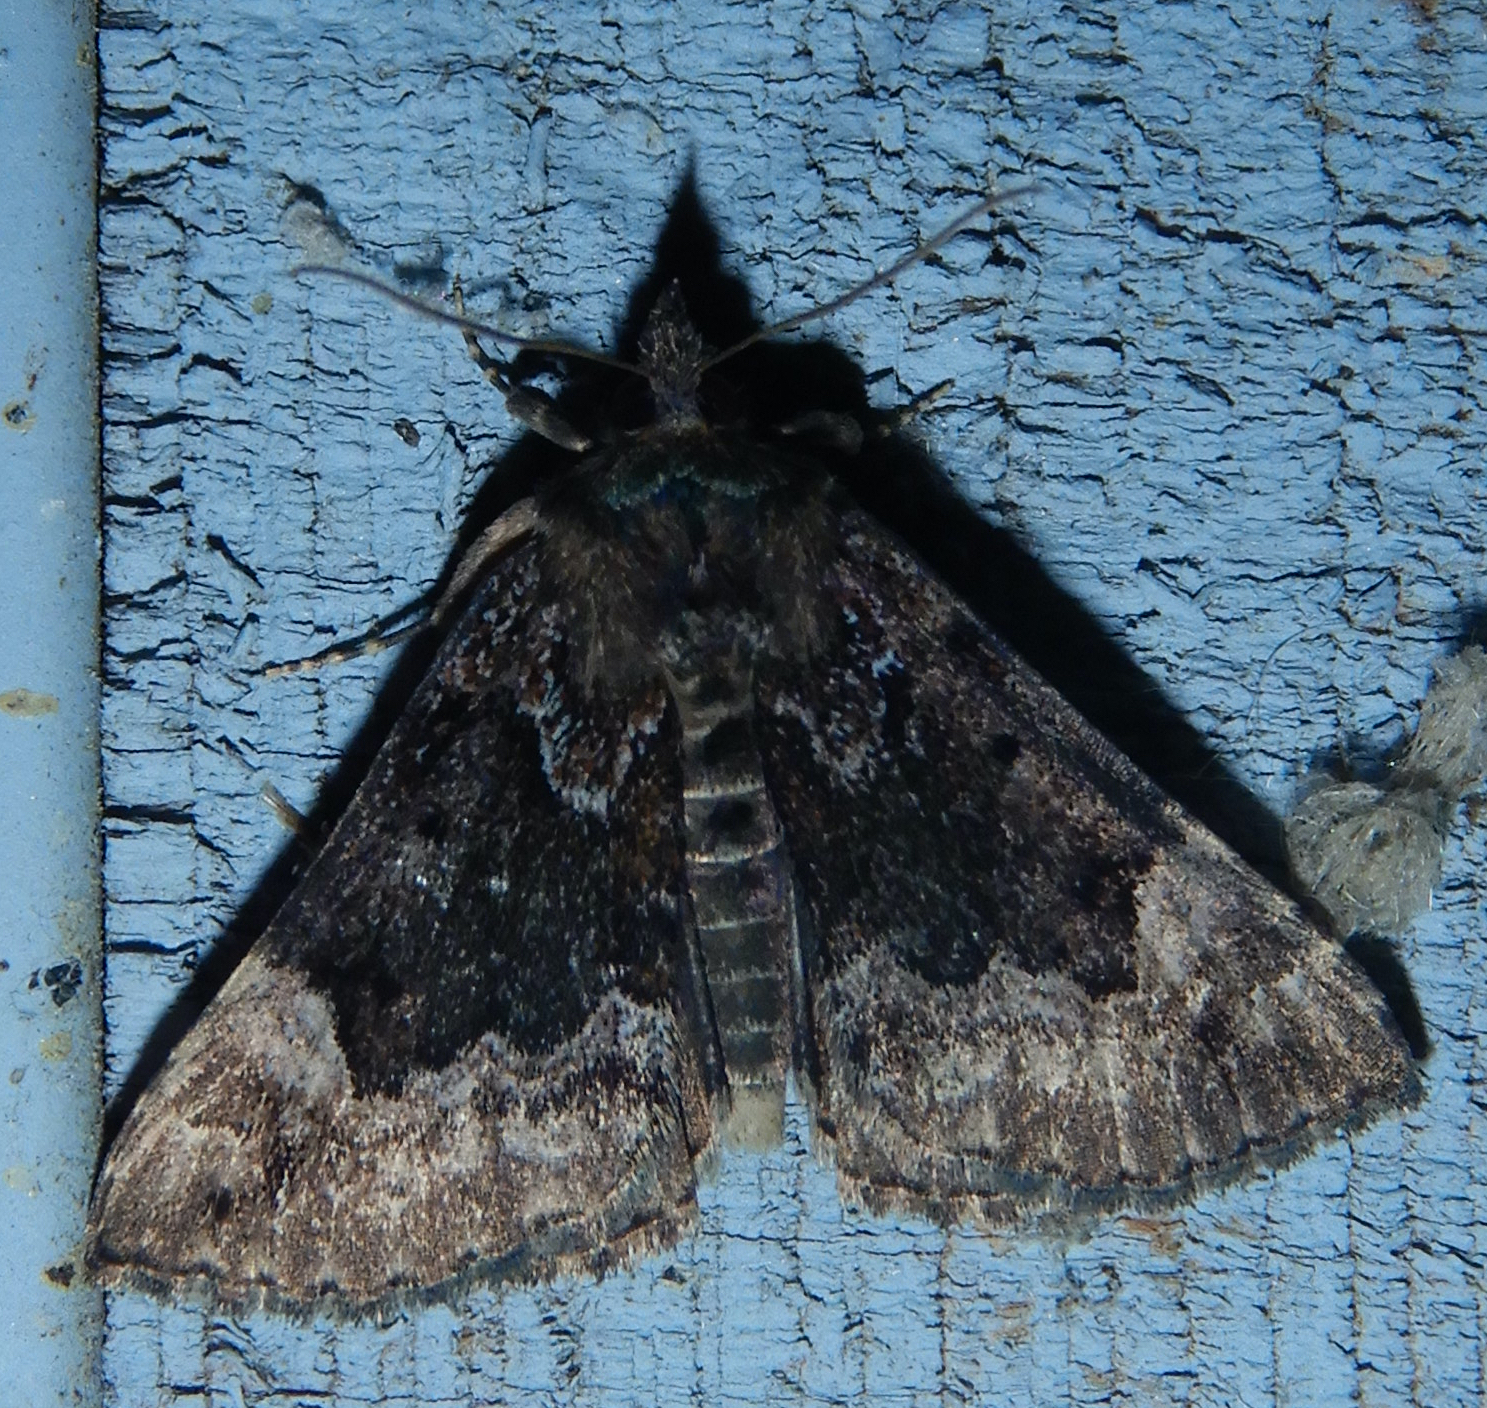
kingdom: Animalia
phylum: Arthropoda
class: Insecta
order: Lepidoptera
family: Erebidae
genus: Hypena
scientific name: Hypena palparia
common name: Mottled bomolocha moth
